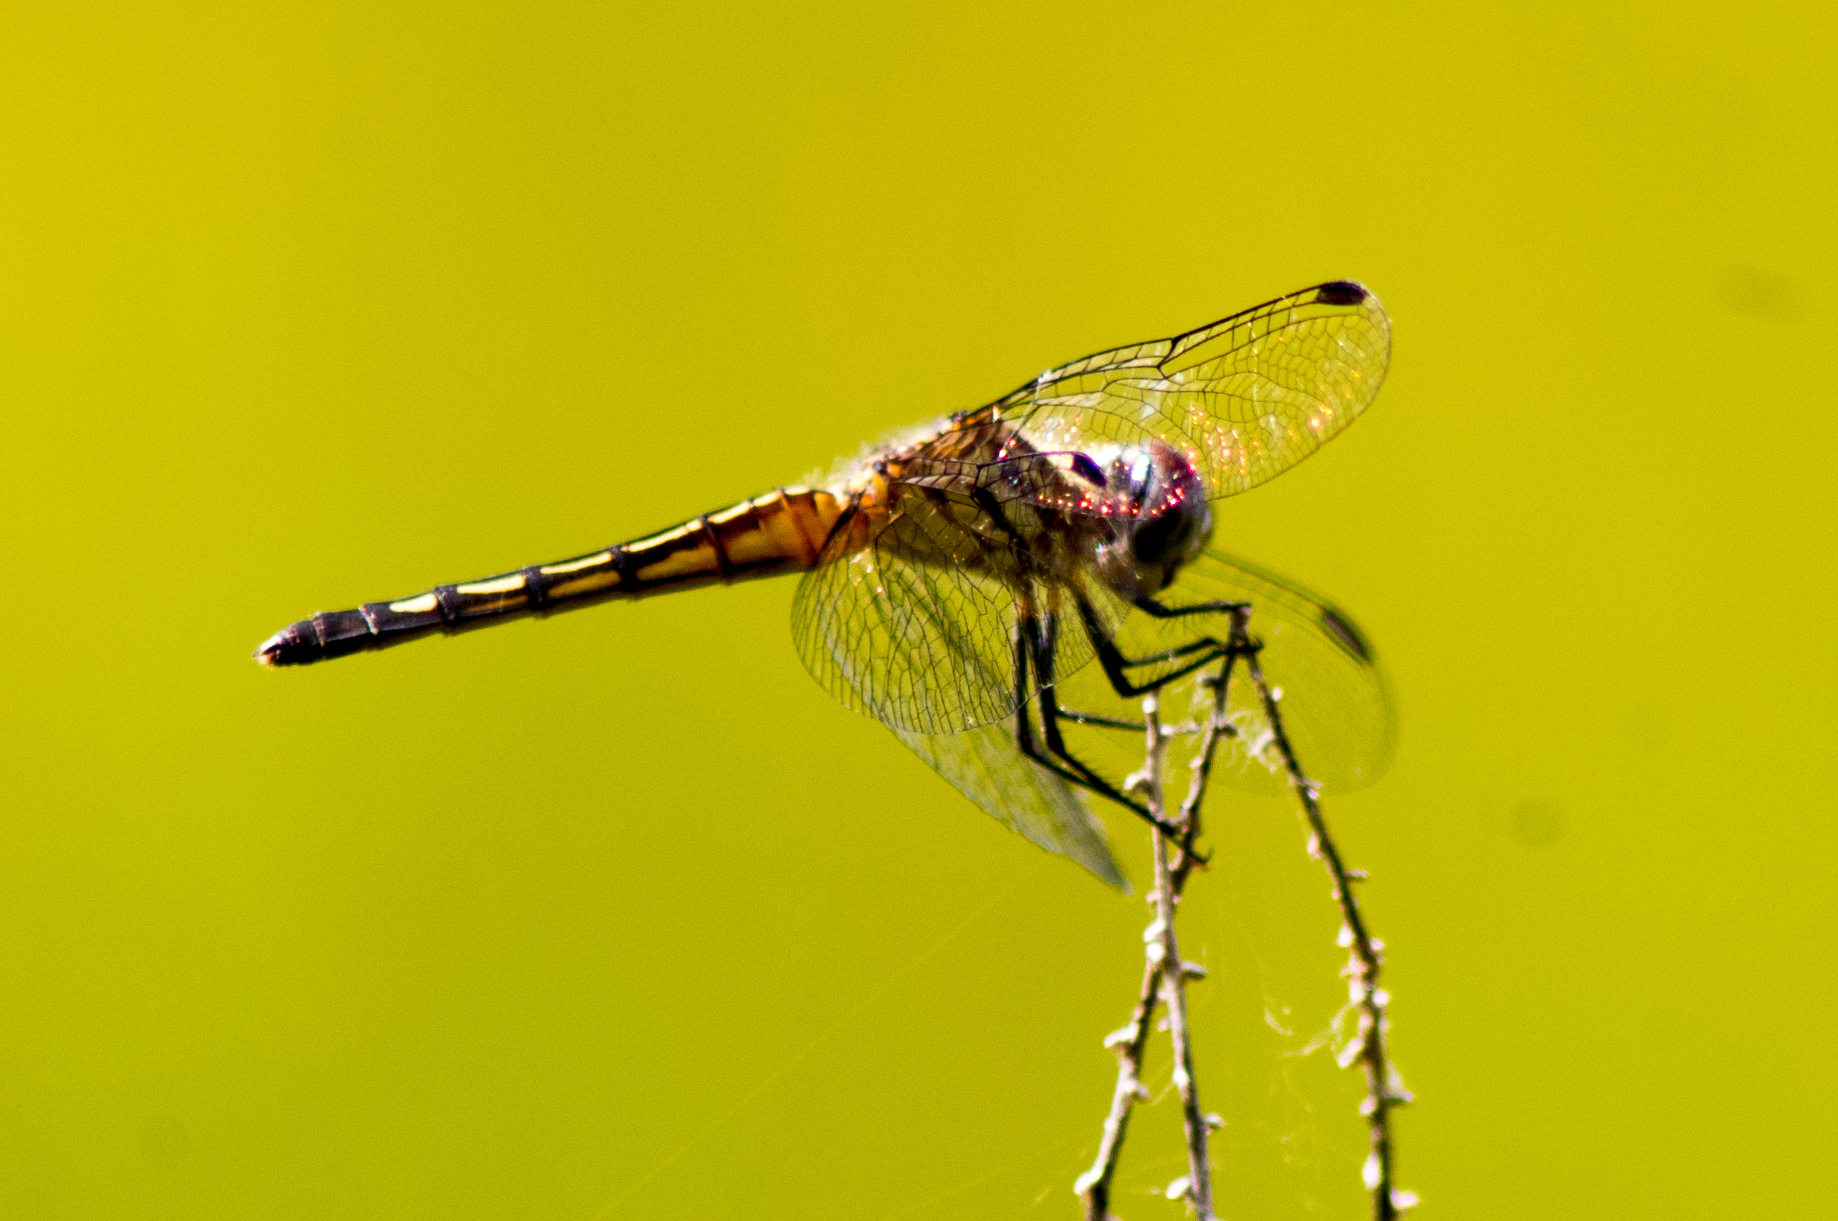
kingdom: Animalia
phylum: Arthropoda
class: Insecta
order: Odonata
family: Libellulidae
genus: Pachydiplax
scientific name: Pachydiplax longipennis
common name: Blue dasher
